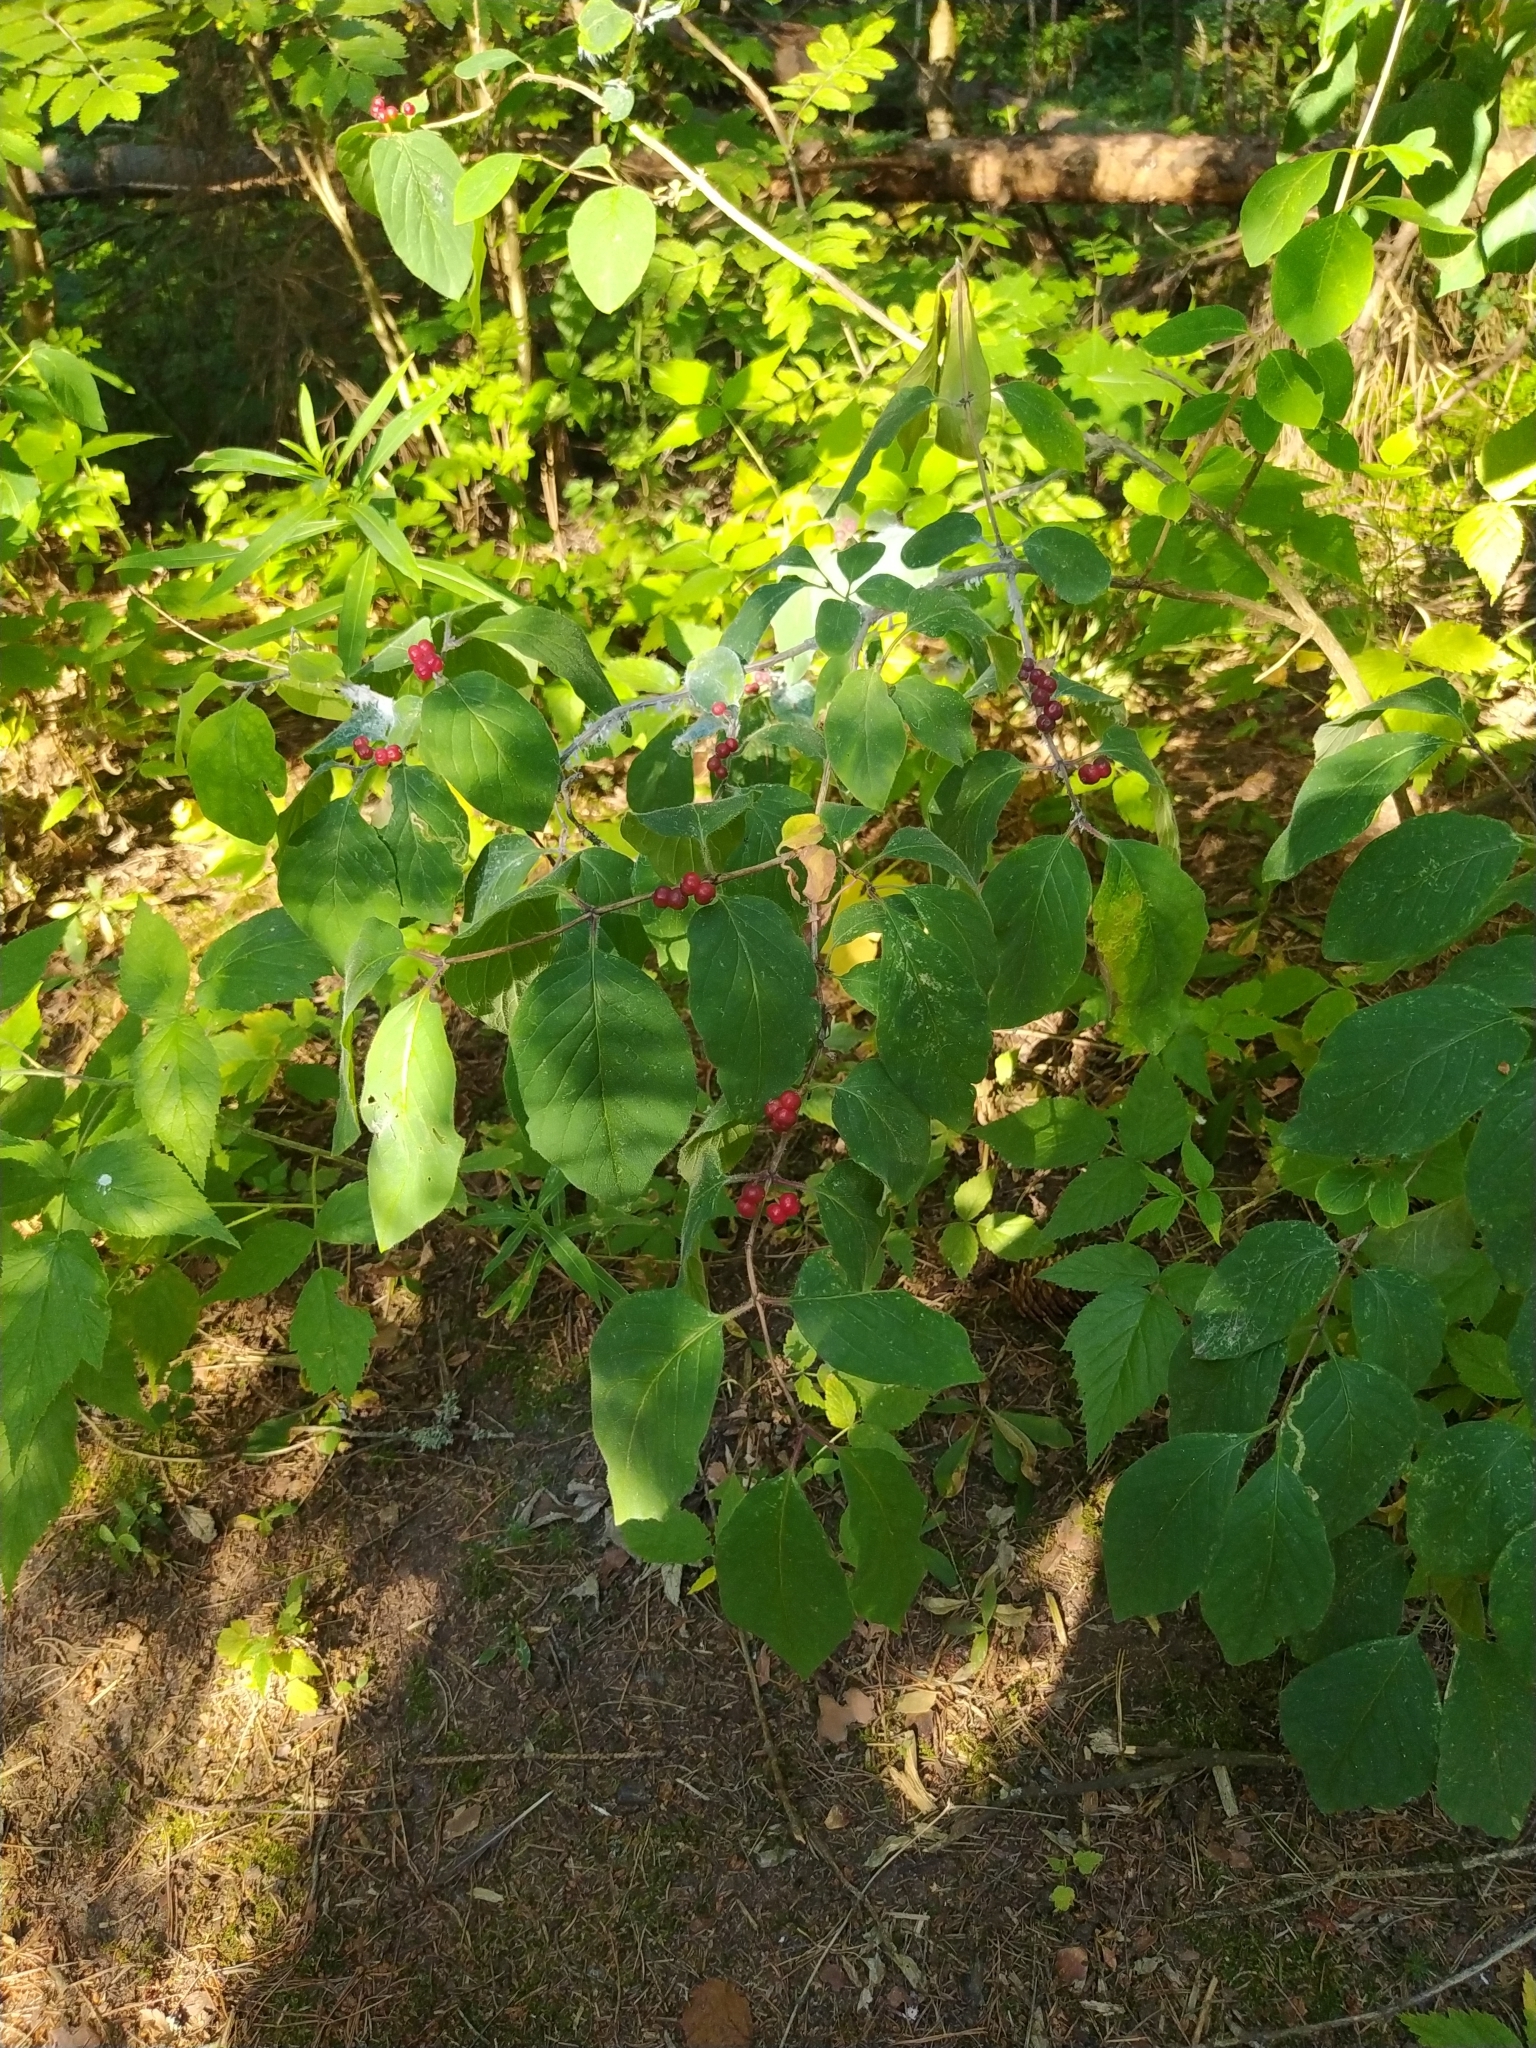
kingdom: Plantae
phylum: Tracheophyta
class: Magnoliopsida
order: Dipsacales
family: Caprifoliaceae
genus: Lonicera
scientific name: Lonicera xylosteum
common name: Fly honeysuckle
